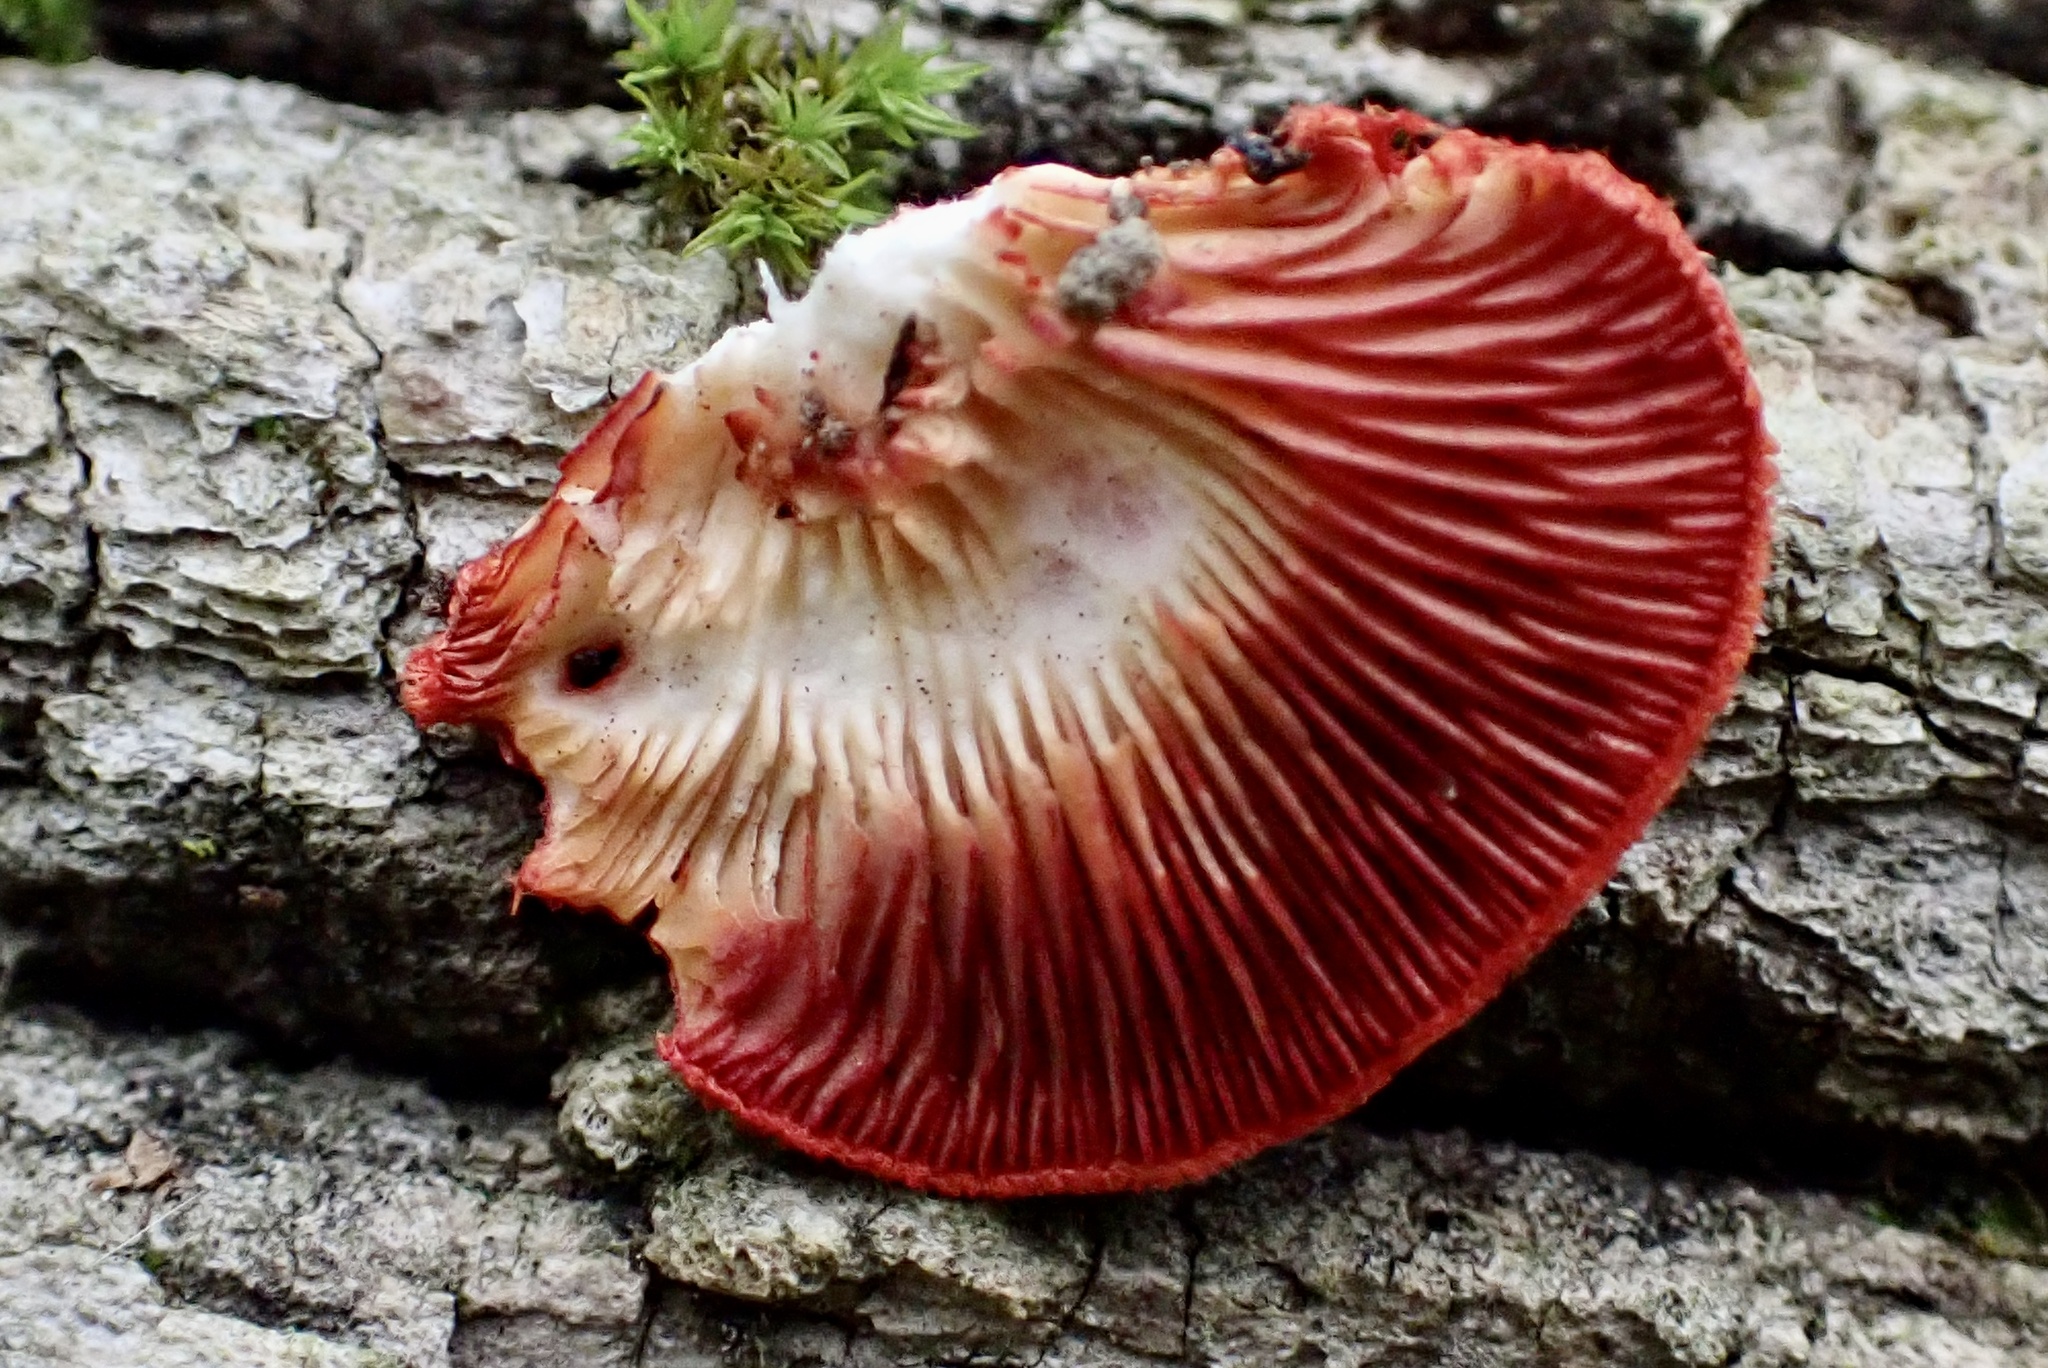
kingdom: Fungi
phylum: Basidiomycota
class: Agaricomycetes
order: Agaricales
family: Crepidotaceae
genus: Crepidotus
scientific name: Crepidotus cinnabarinus
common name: Cinnabar oysterling
